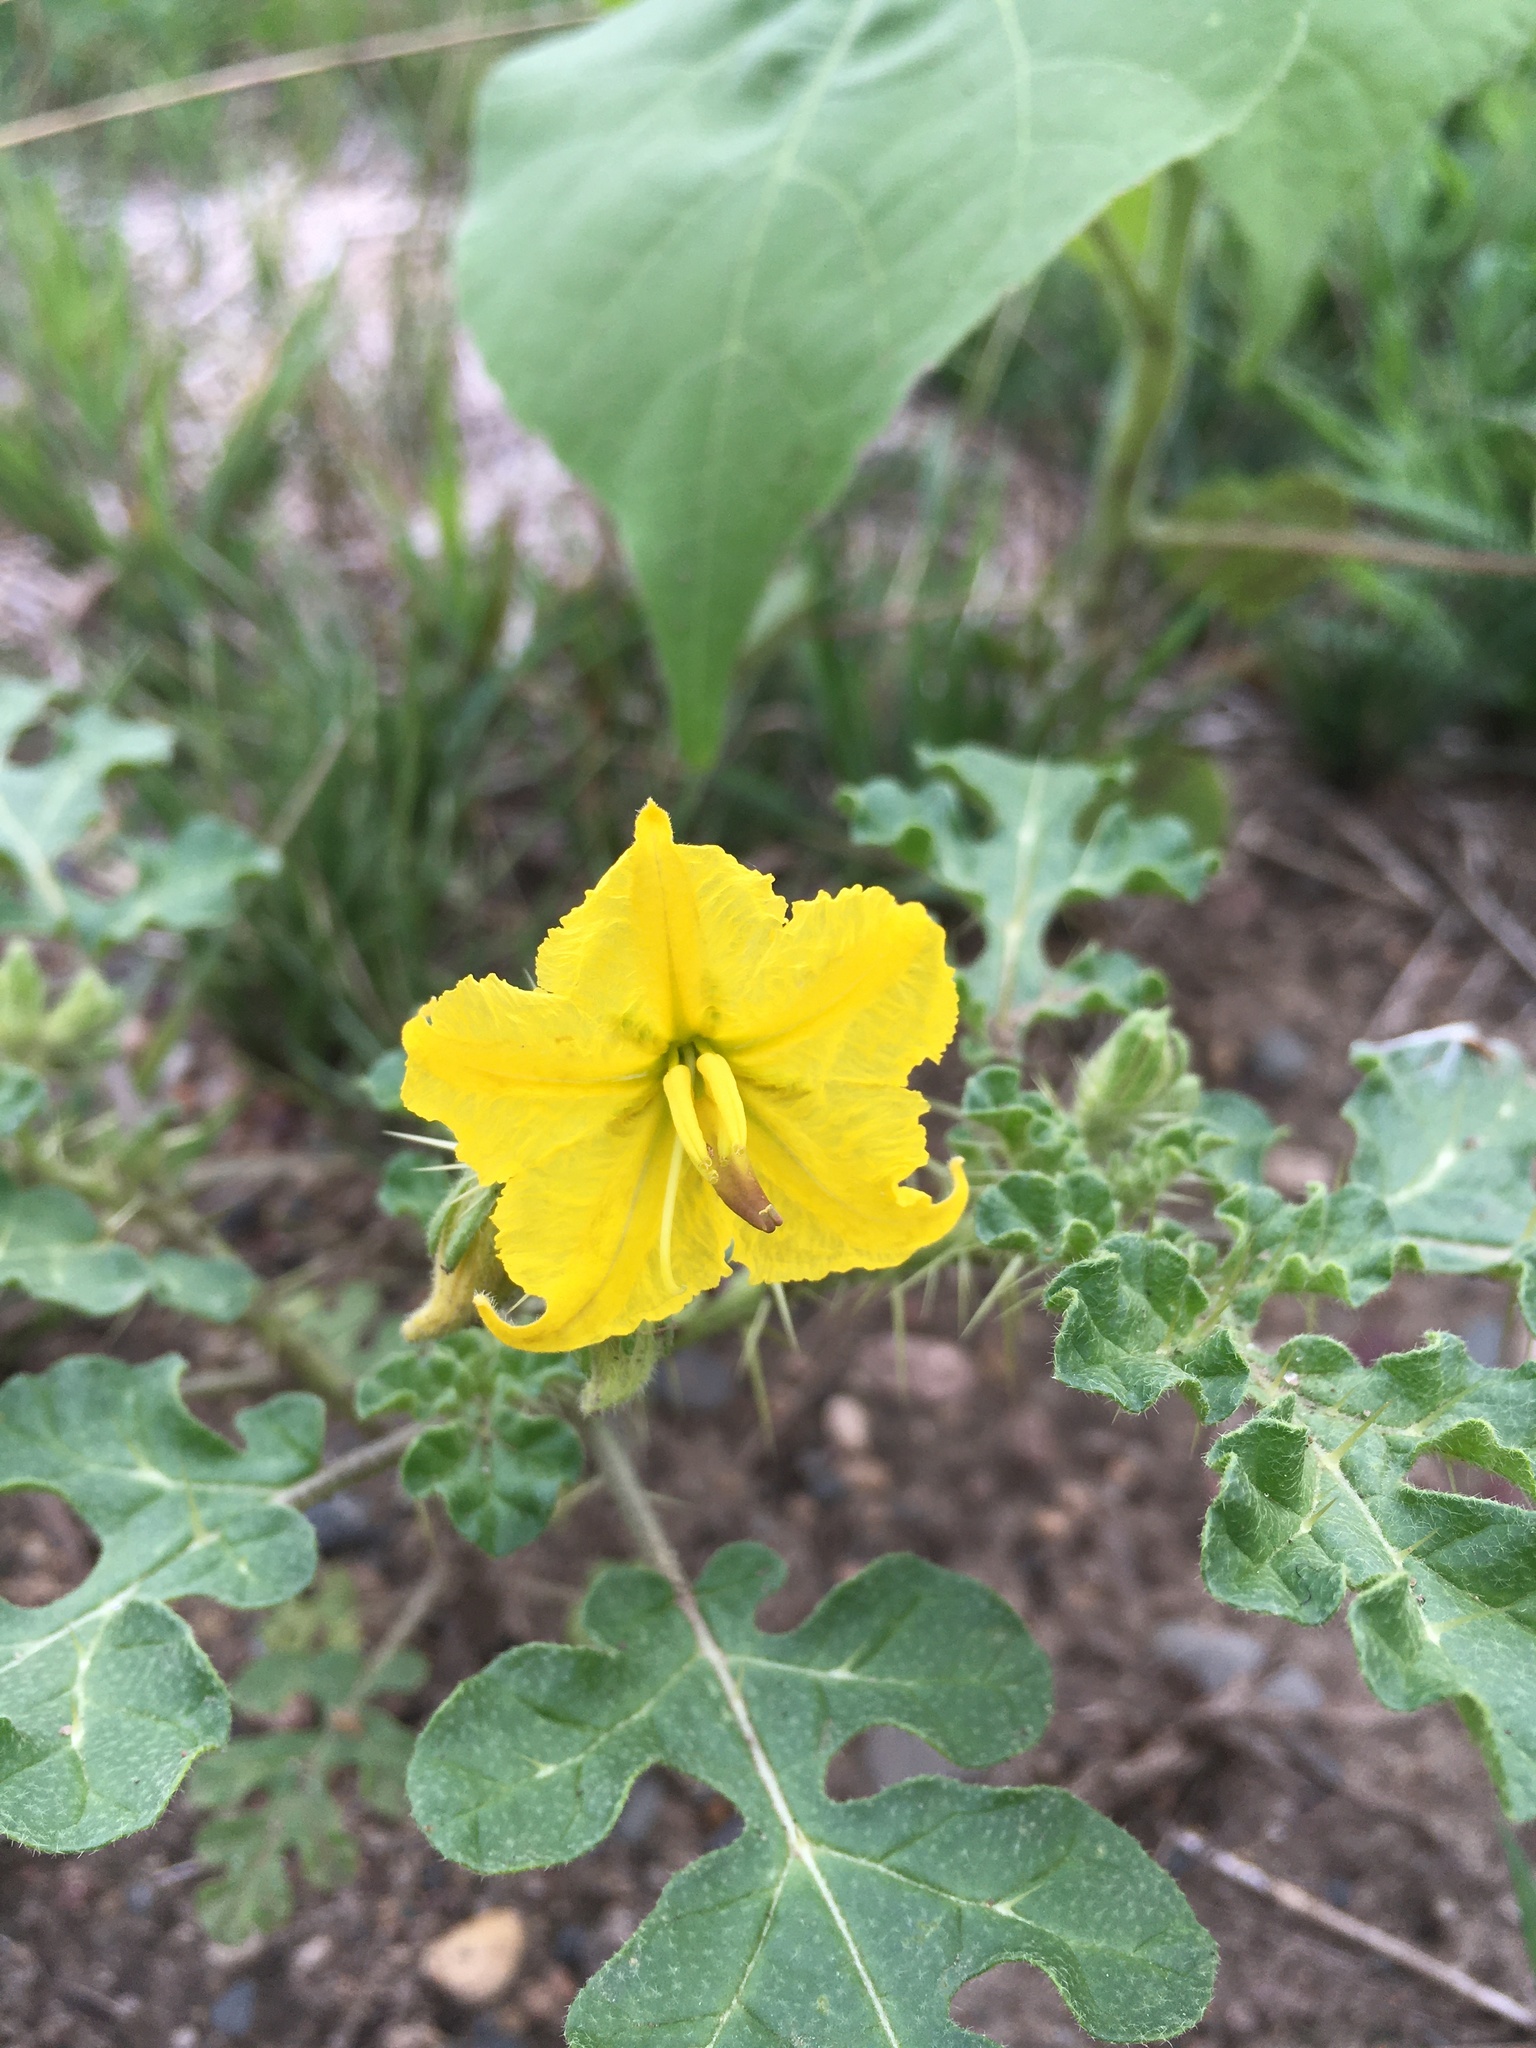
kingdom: Plantae
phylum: Tracheophyta
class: Magnoliopsida
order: Solanales
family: Solanaceae
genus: Solanum
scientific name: Solanum angustifolium
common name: Buffalobur nightshade
